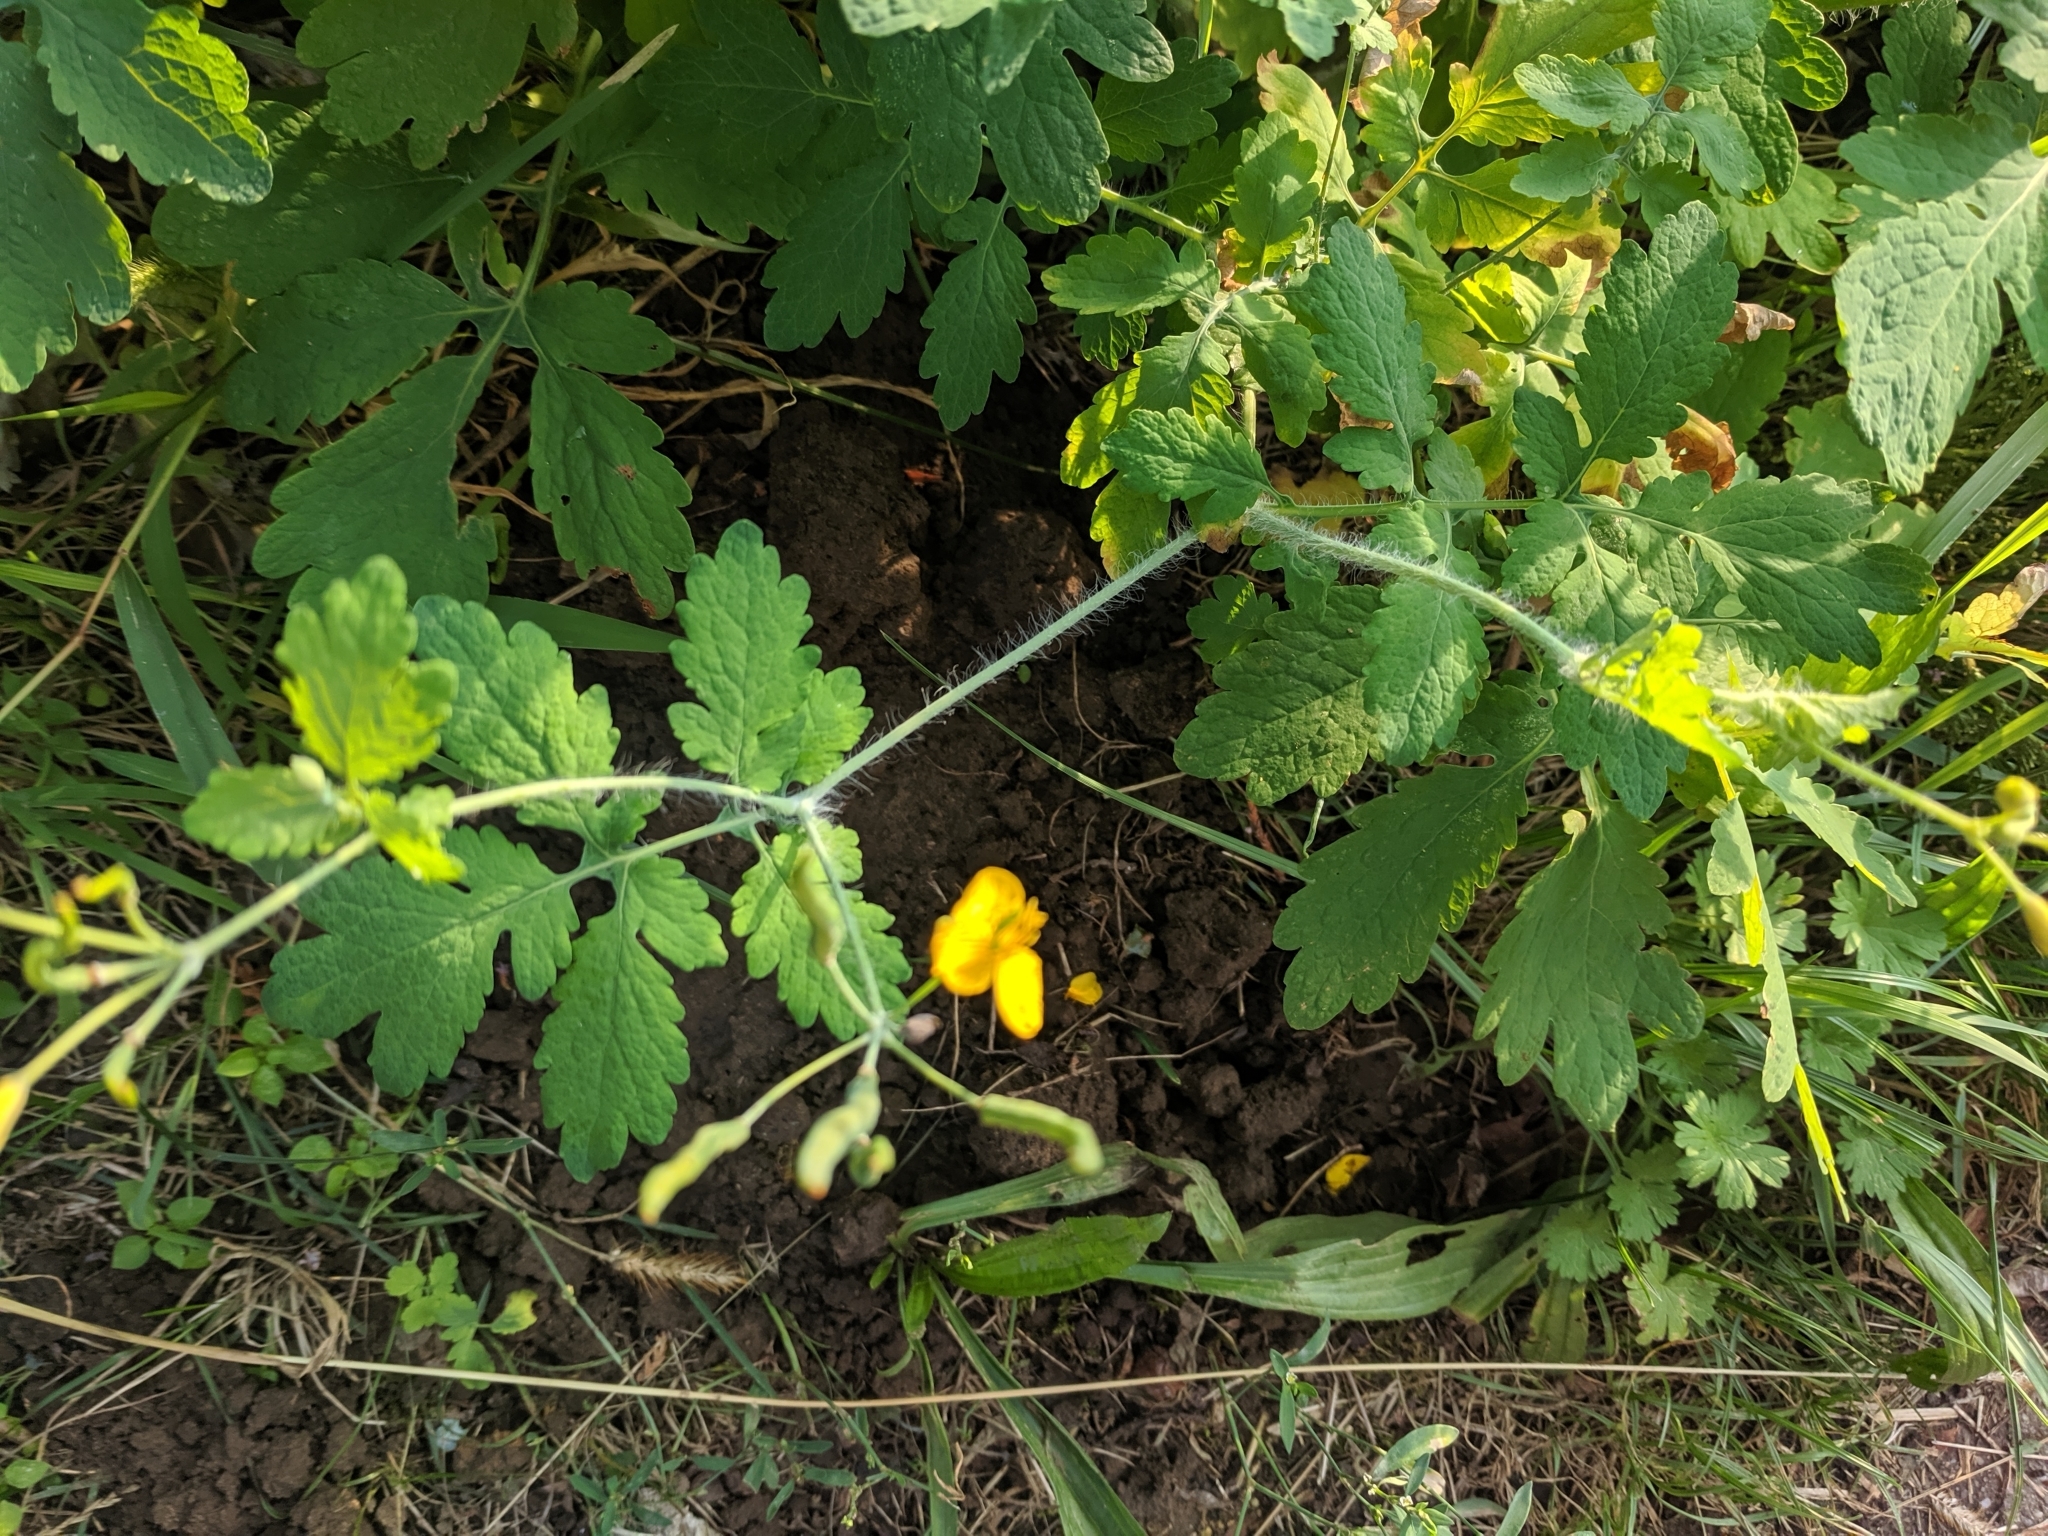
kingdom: Plantae
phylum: Tracheophyta
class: Magnoliopsida
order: Ranunculales
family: Papaveraceae
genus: Chelidonium
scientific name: Chelidonium majus
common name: Greater celandine
